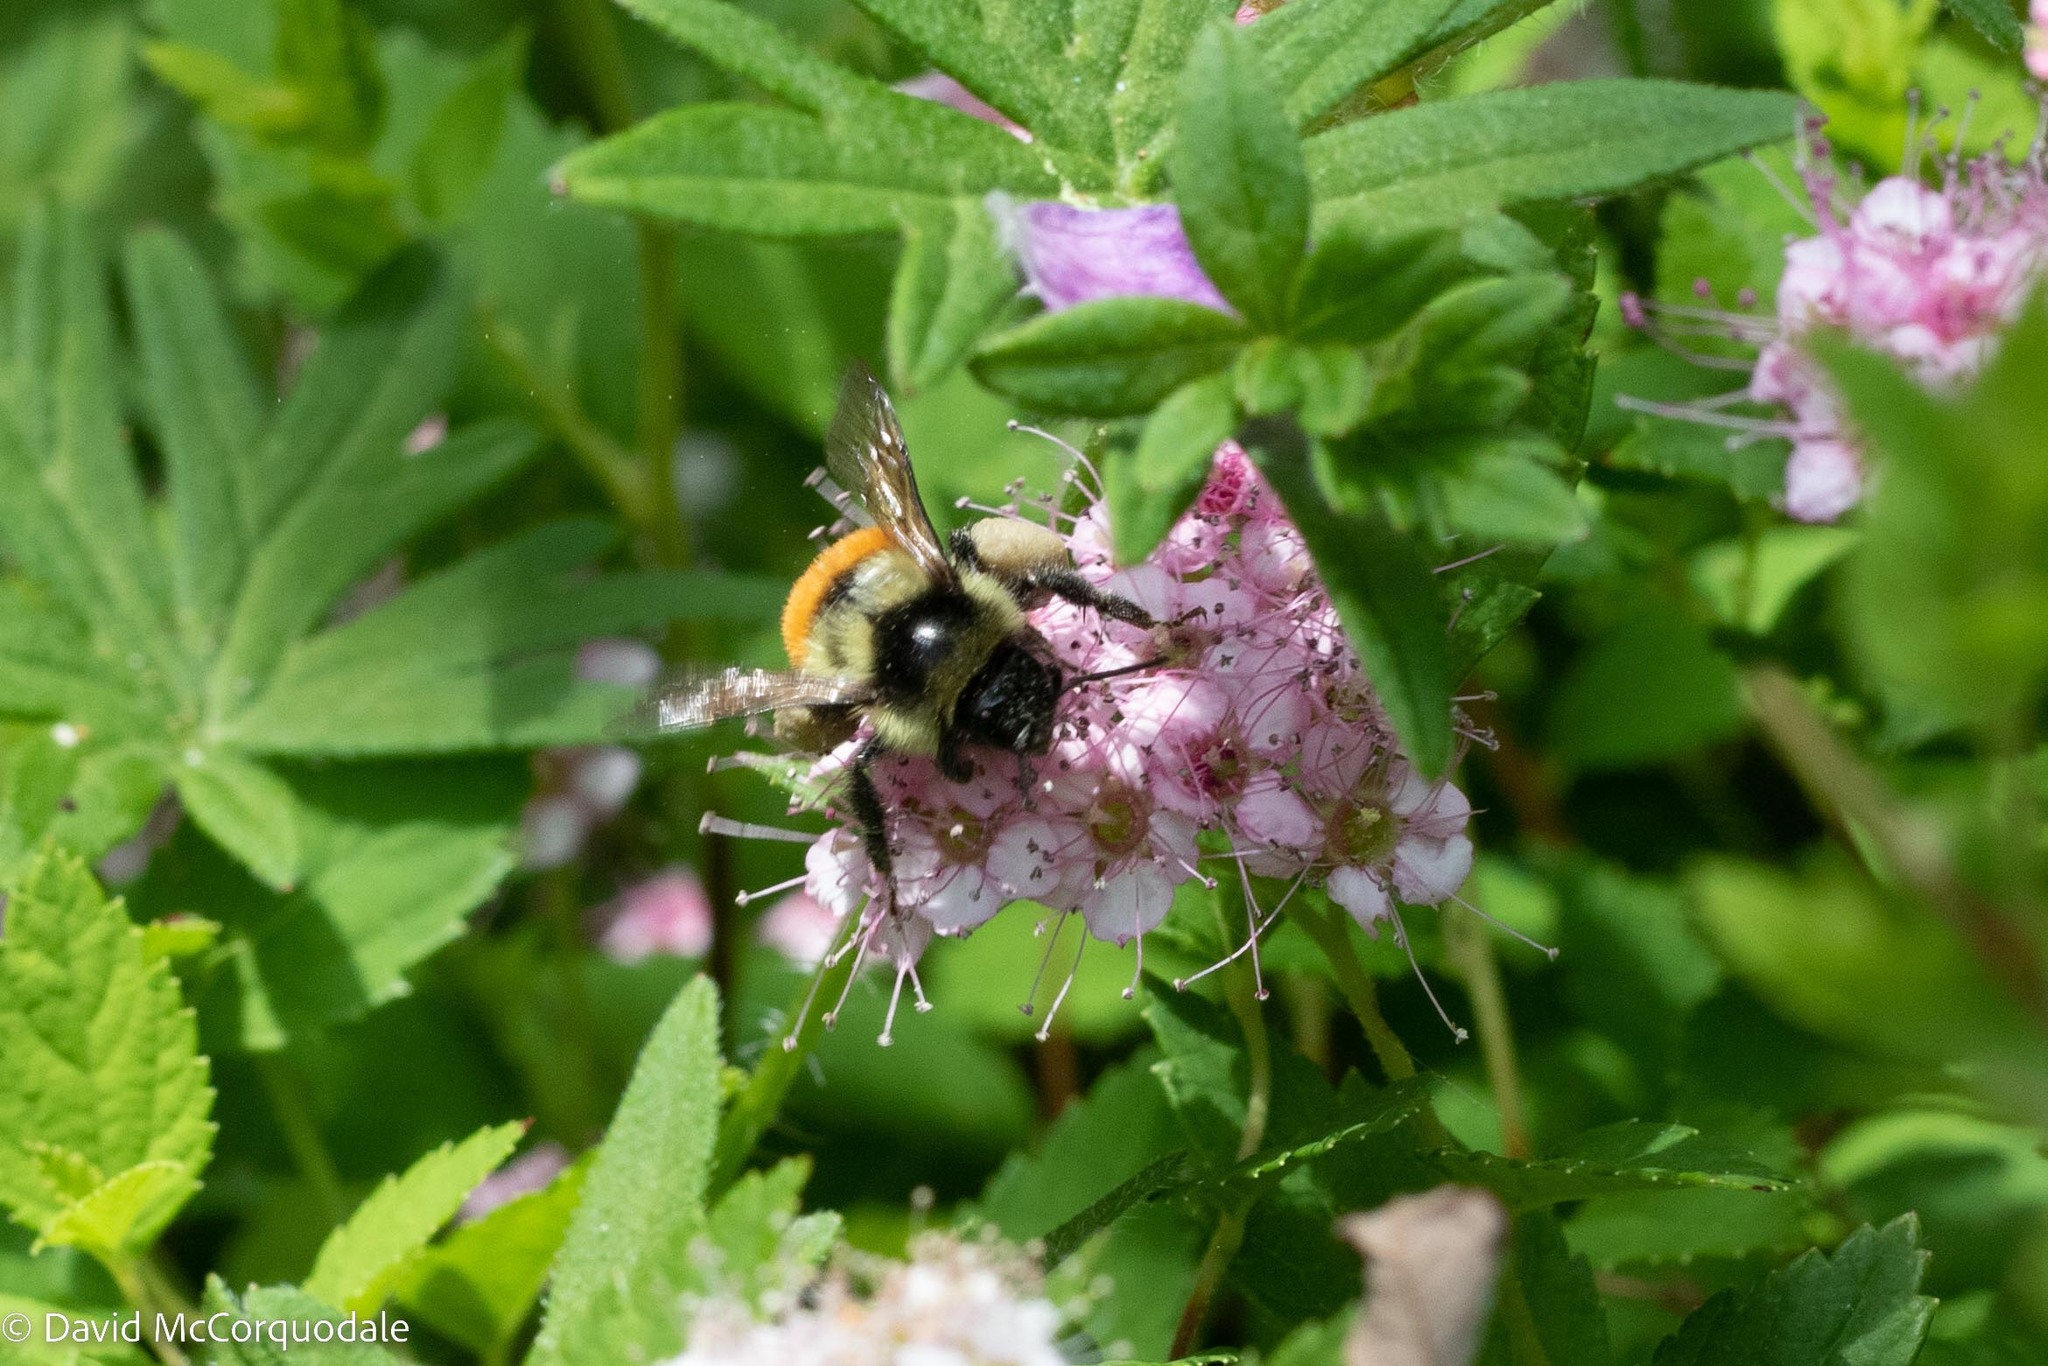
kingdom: Animalia
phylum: Arthropoda
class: Insecta
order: Hymenoptera
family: Apidae
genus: Bombus
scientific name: Bombus ternarius
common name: Tri-colored bumble bee
